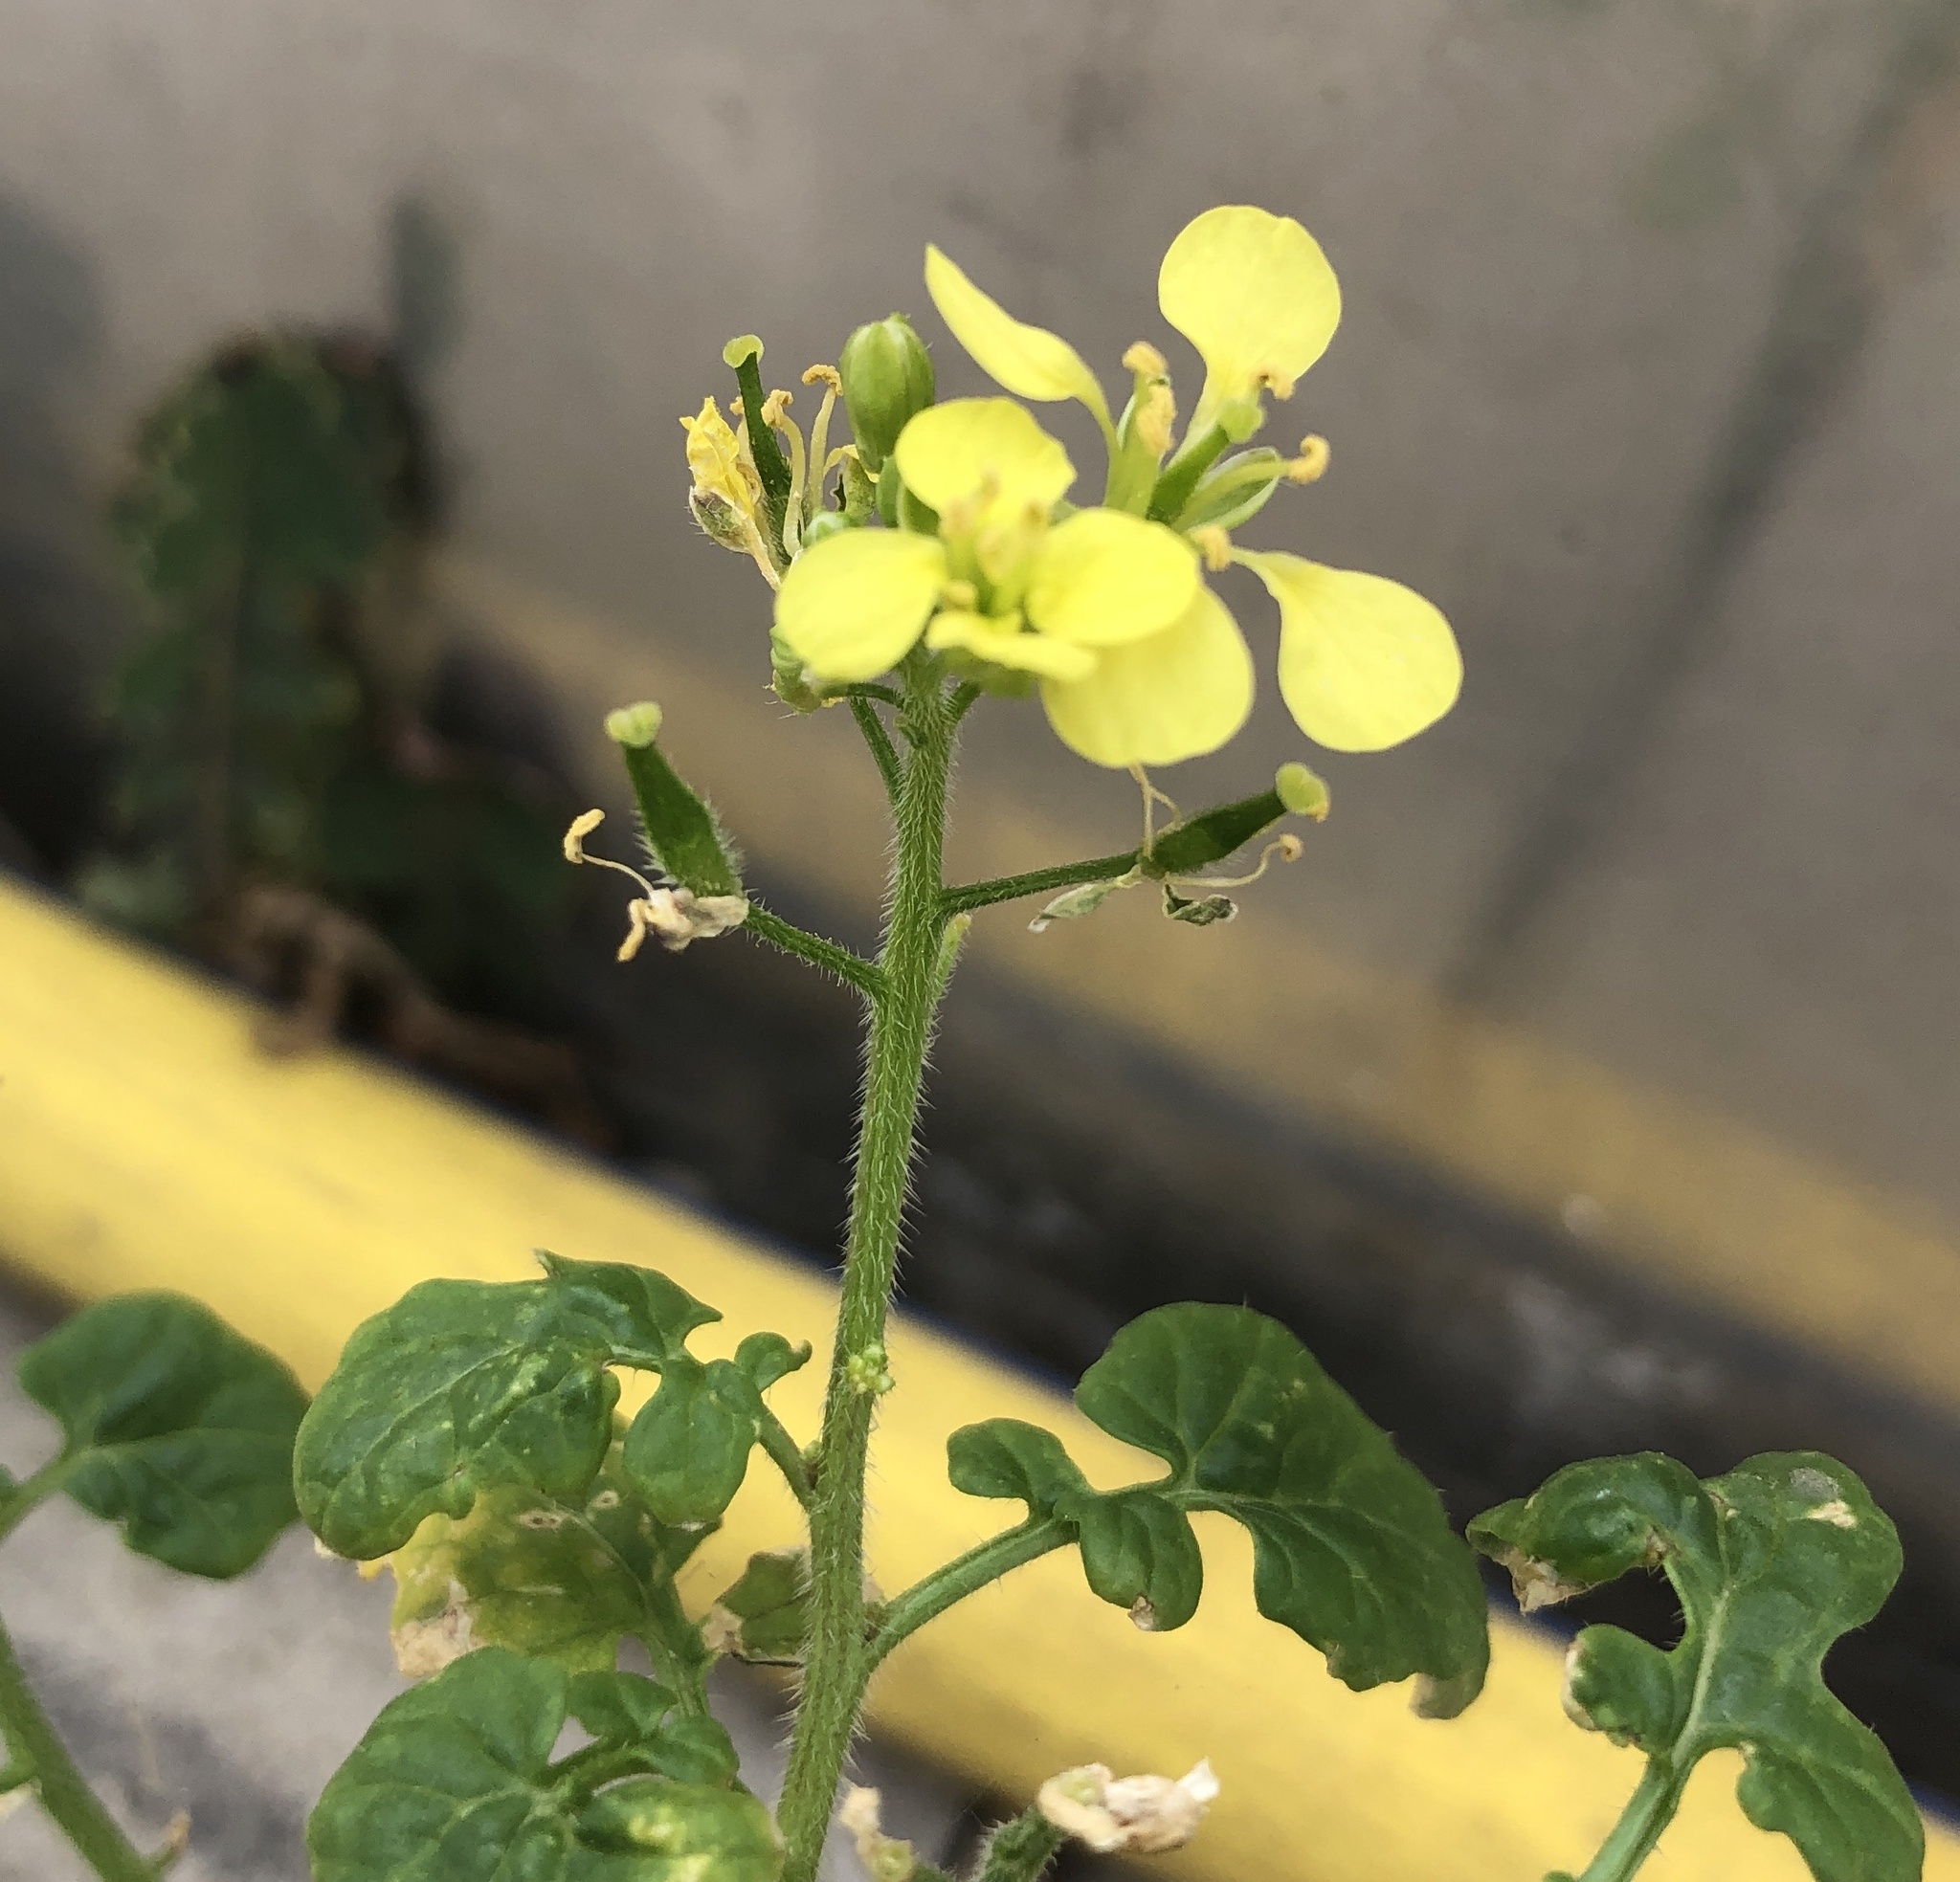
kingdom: Plantae
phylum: Tracheophyta
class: Magnoliopsida
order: Brassicales
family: Brassicaceae
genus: Sinapis
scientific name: Sinapis alba
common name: White mustard
